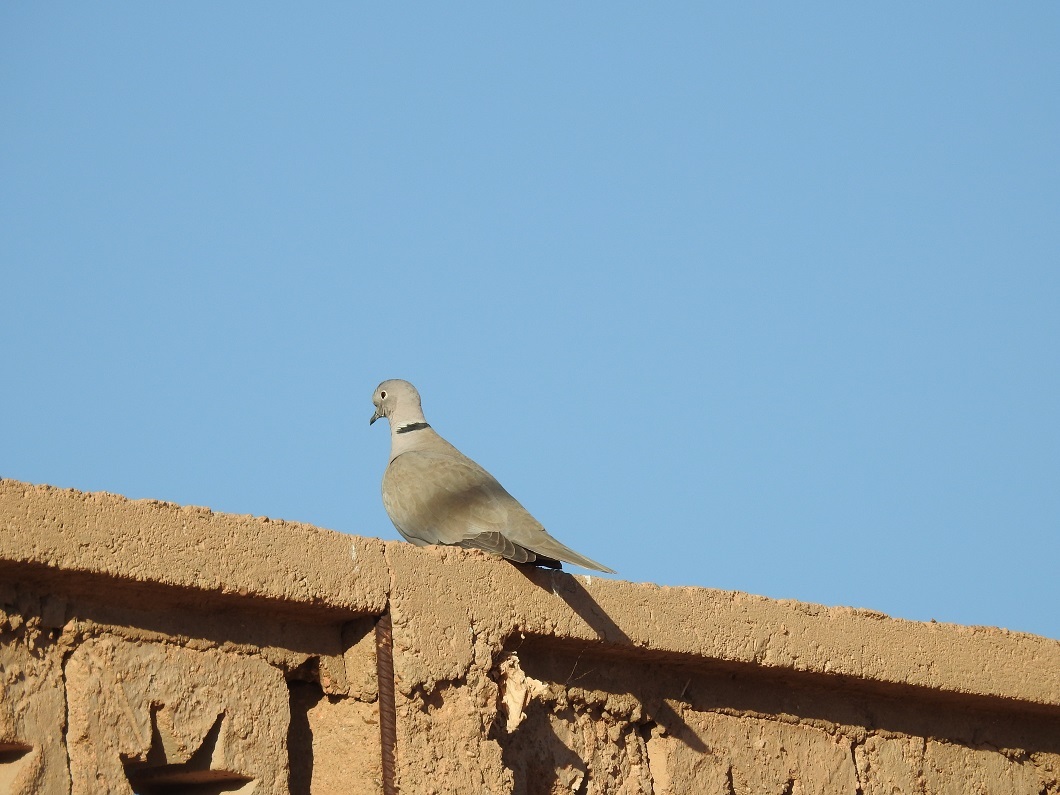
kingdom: Animalia
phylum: Chordata
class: Aves
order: Columbiformes
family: Columbidae
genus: Streptopelia
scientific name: Streptopelia decaocto
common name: Eurasian collared dove
